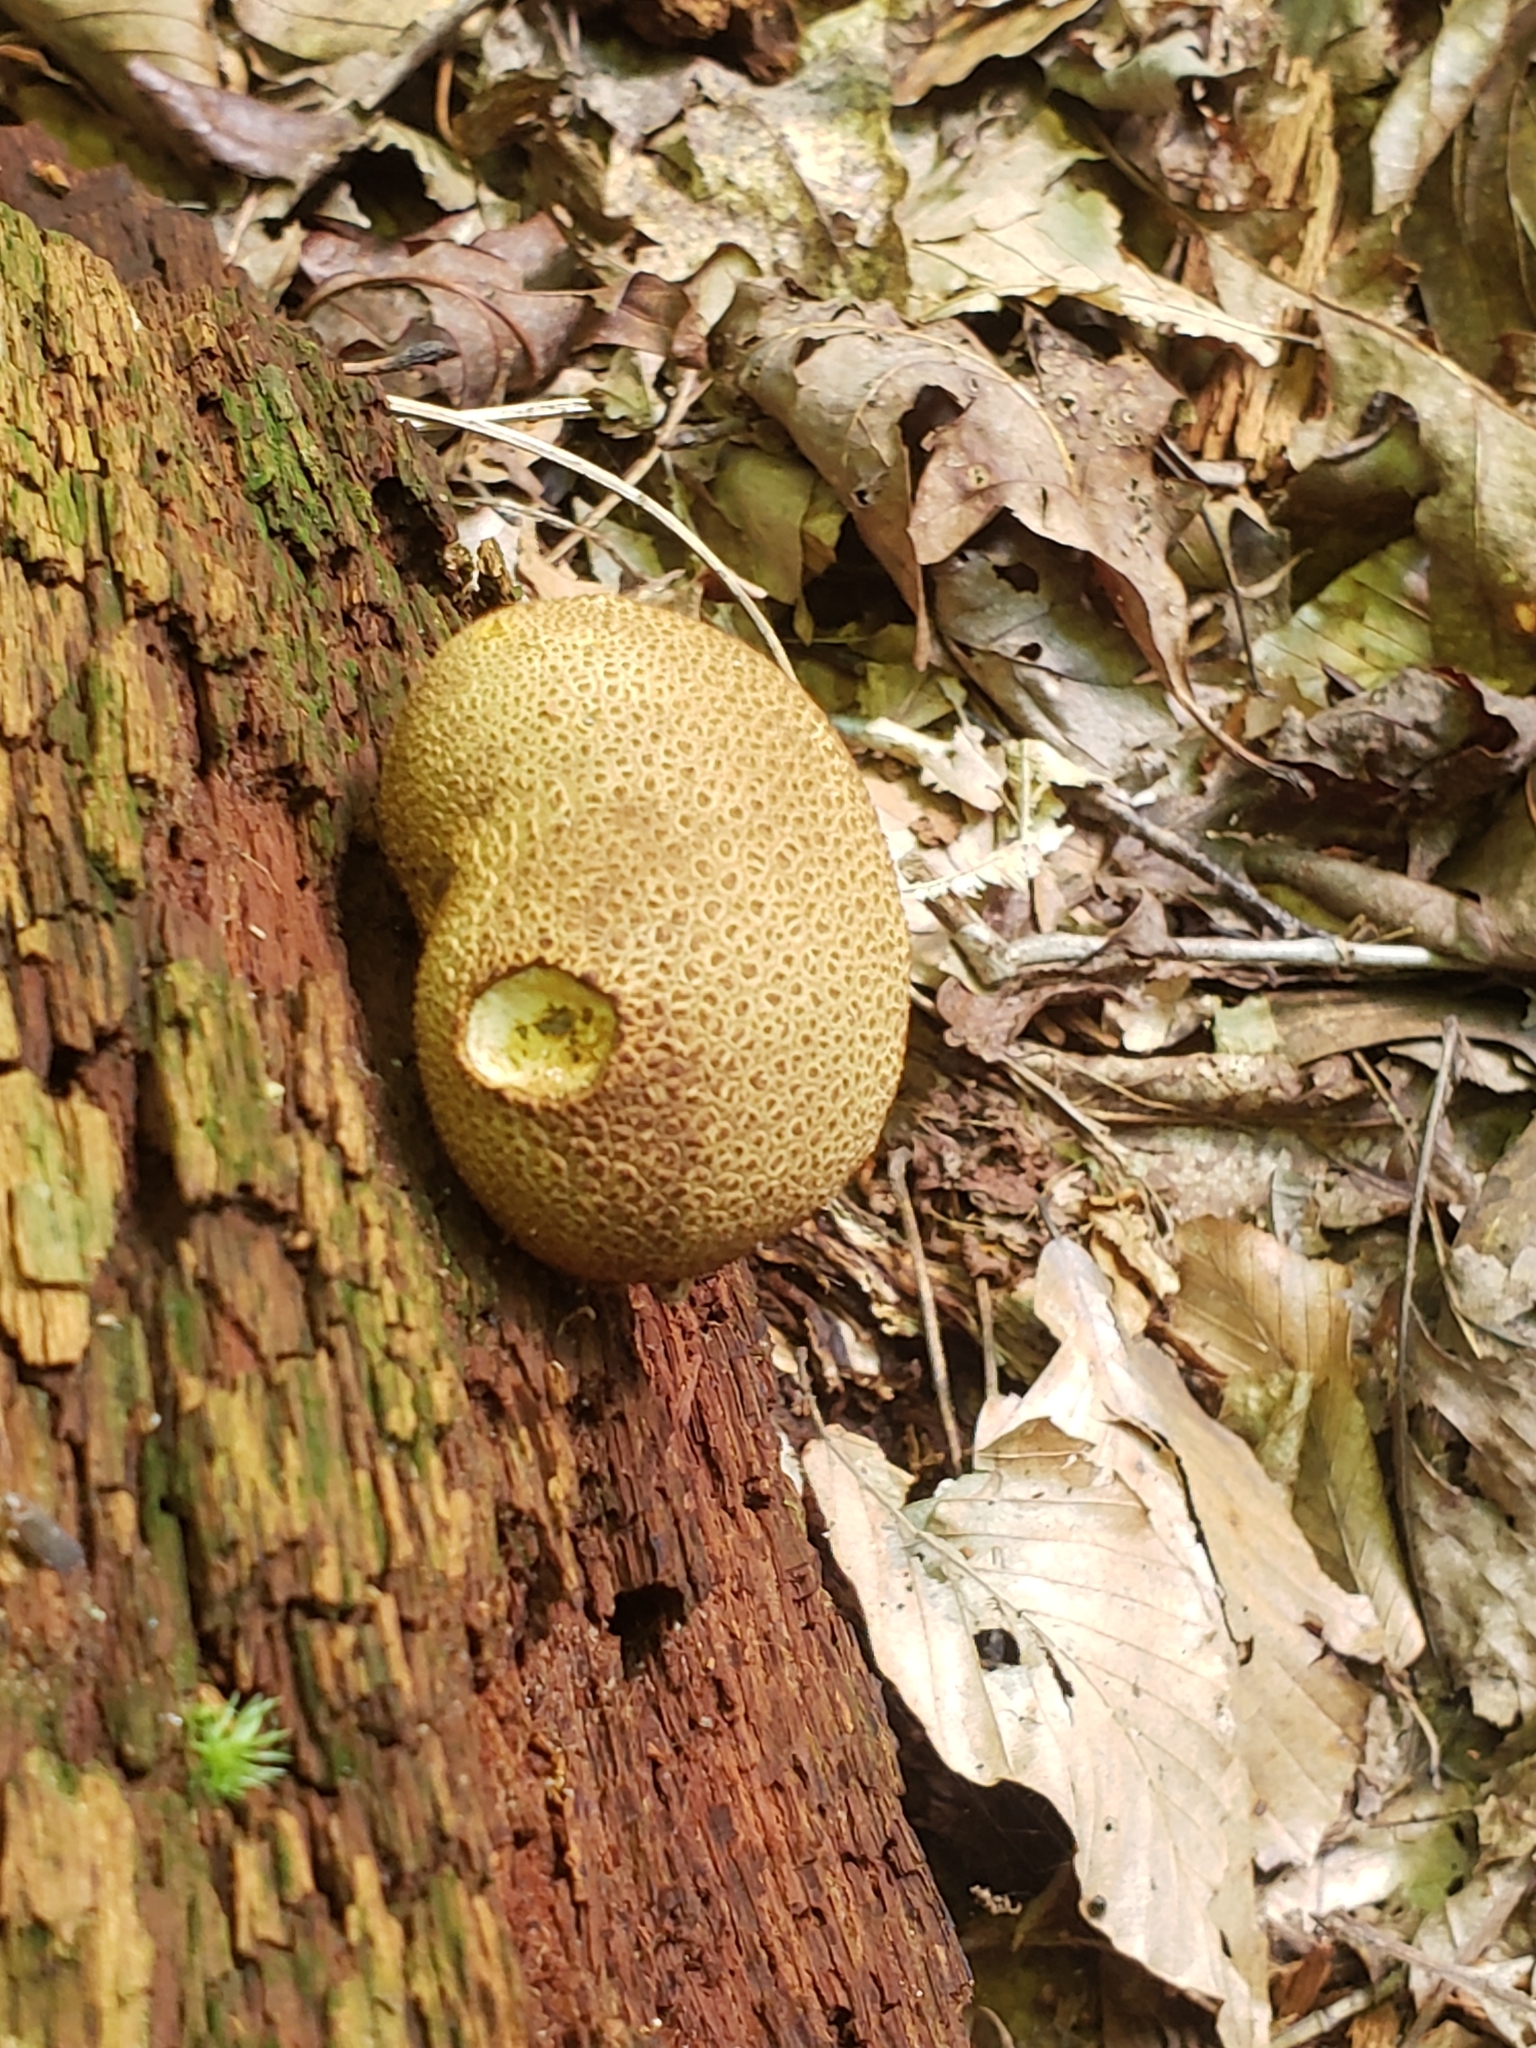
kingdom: Fungi
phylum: Basidiomycota
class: Agaricomycetes
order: Boletales
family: Sclerodermataceae
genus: Scleroderma
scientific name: Scleroderma citrinum
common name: Common earthball
